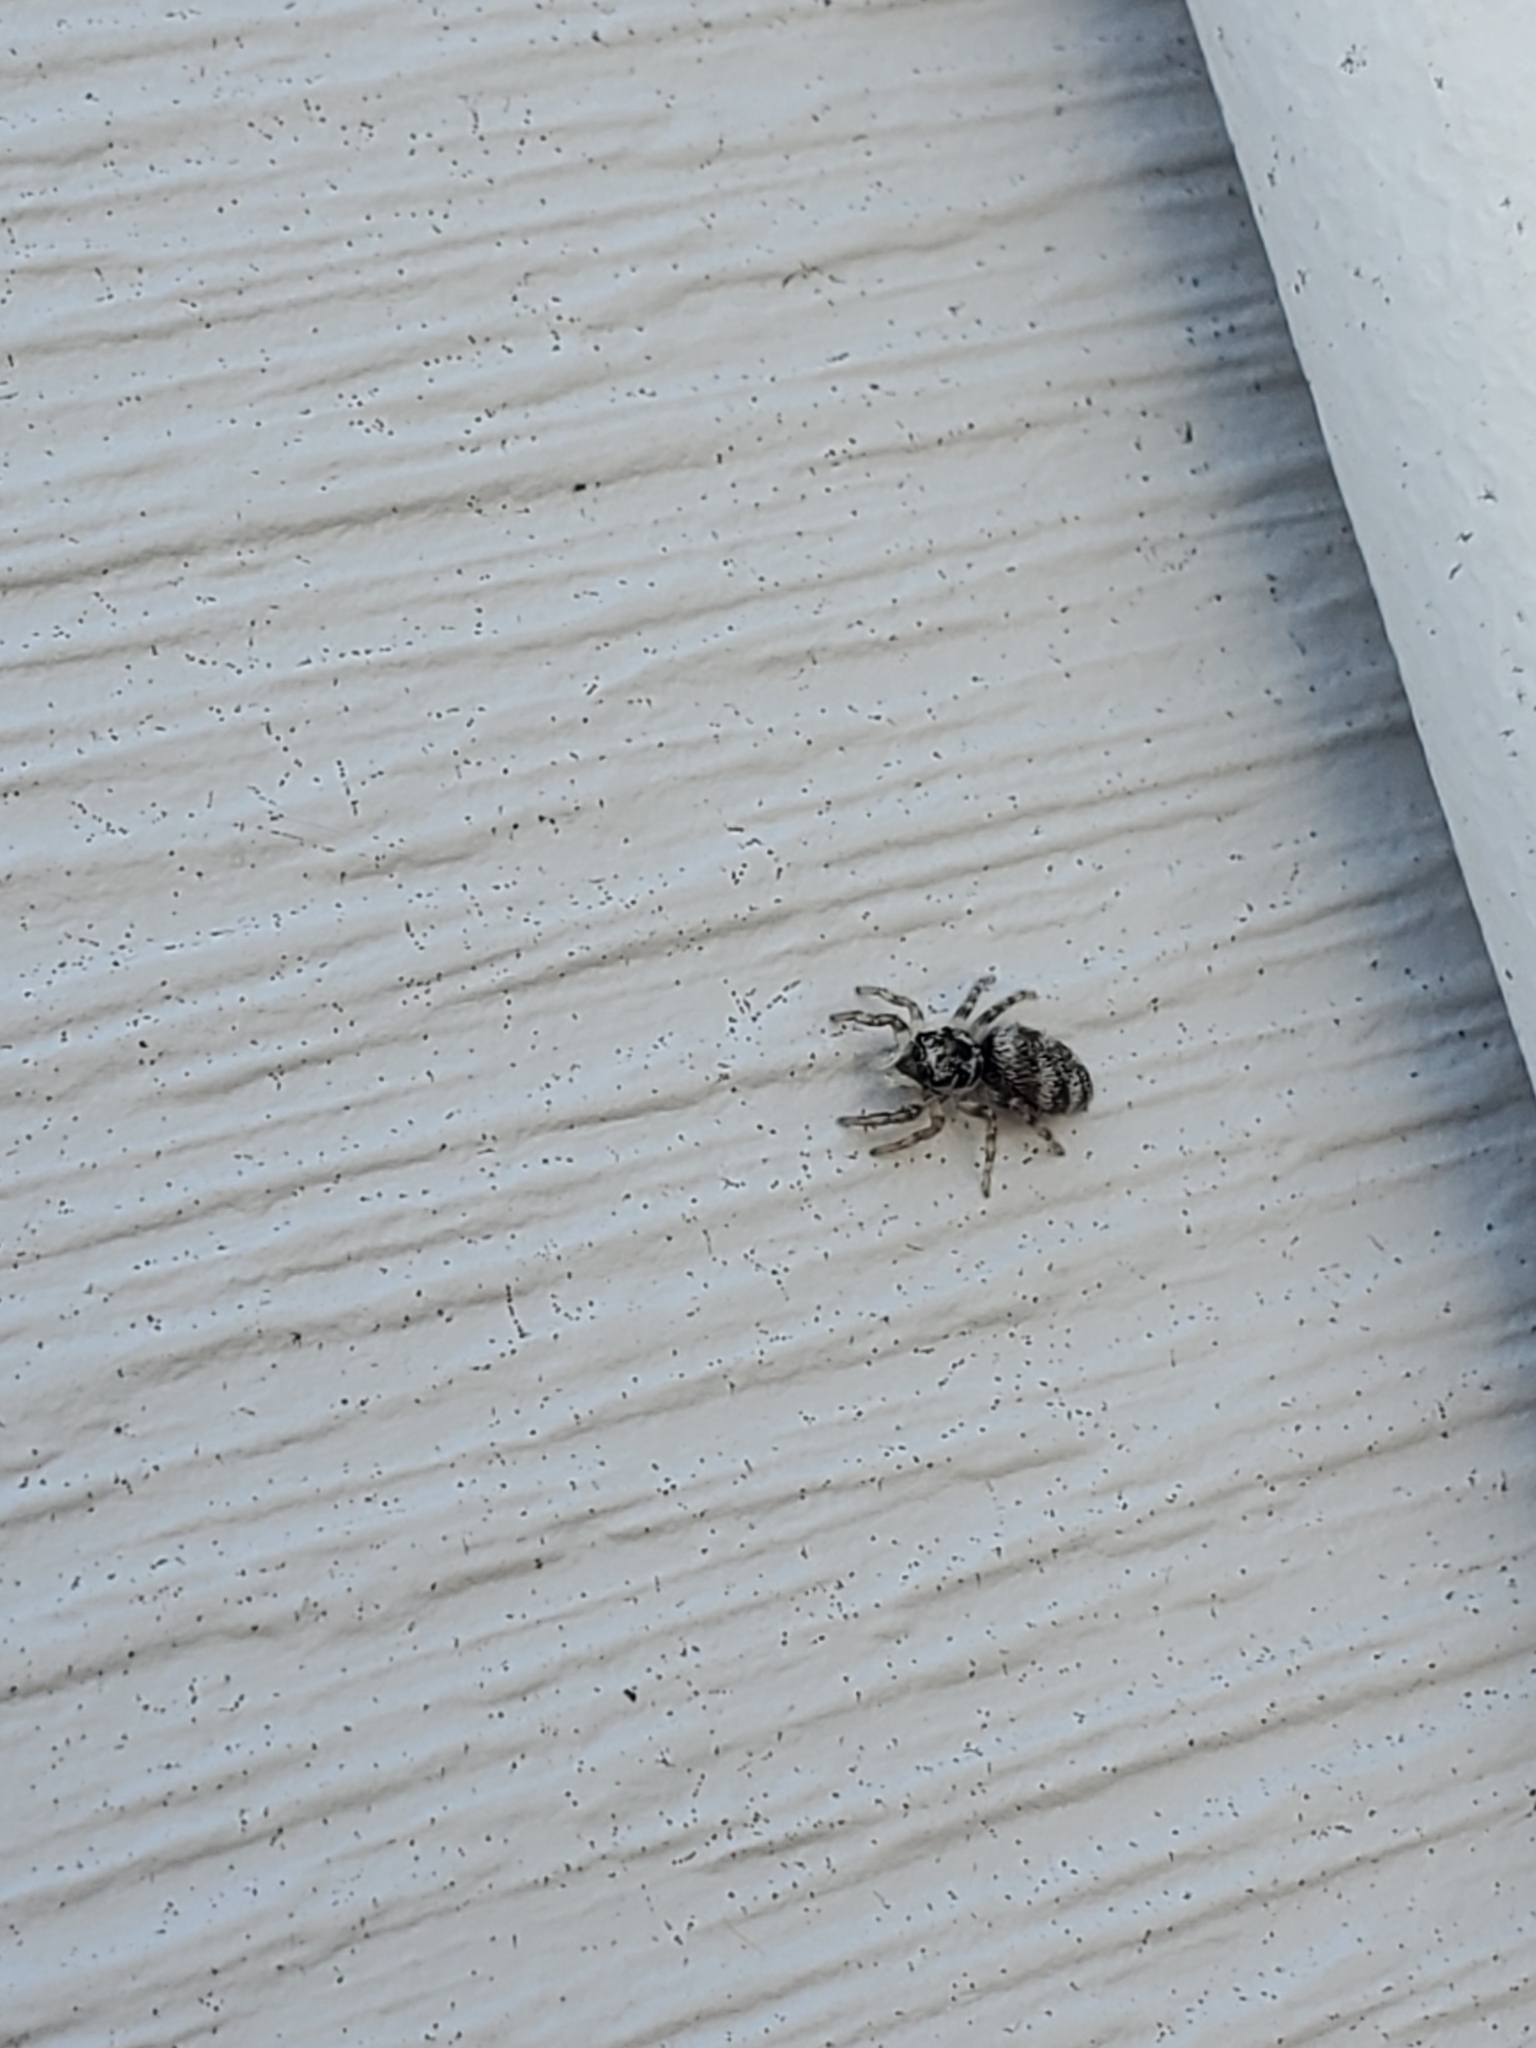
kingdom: Animalia
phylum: Arthropoda
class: Arachnida
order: Araneae
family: Salticidae
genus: Salticus
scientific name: Salticus scenicus
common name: Zebra jumper
